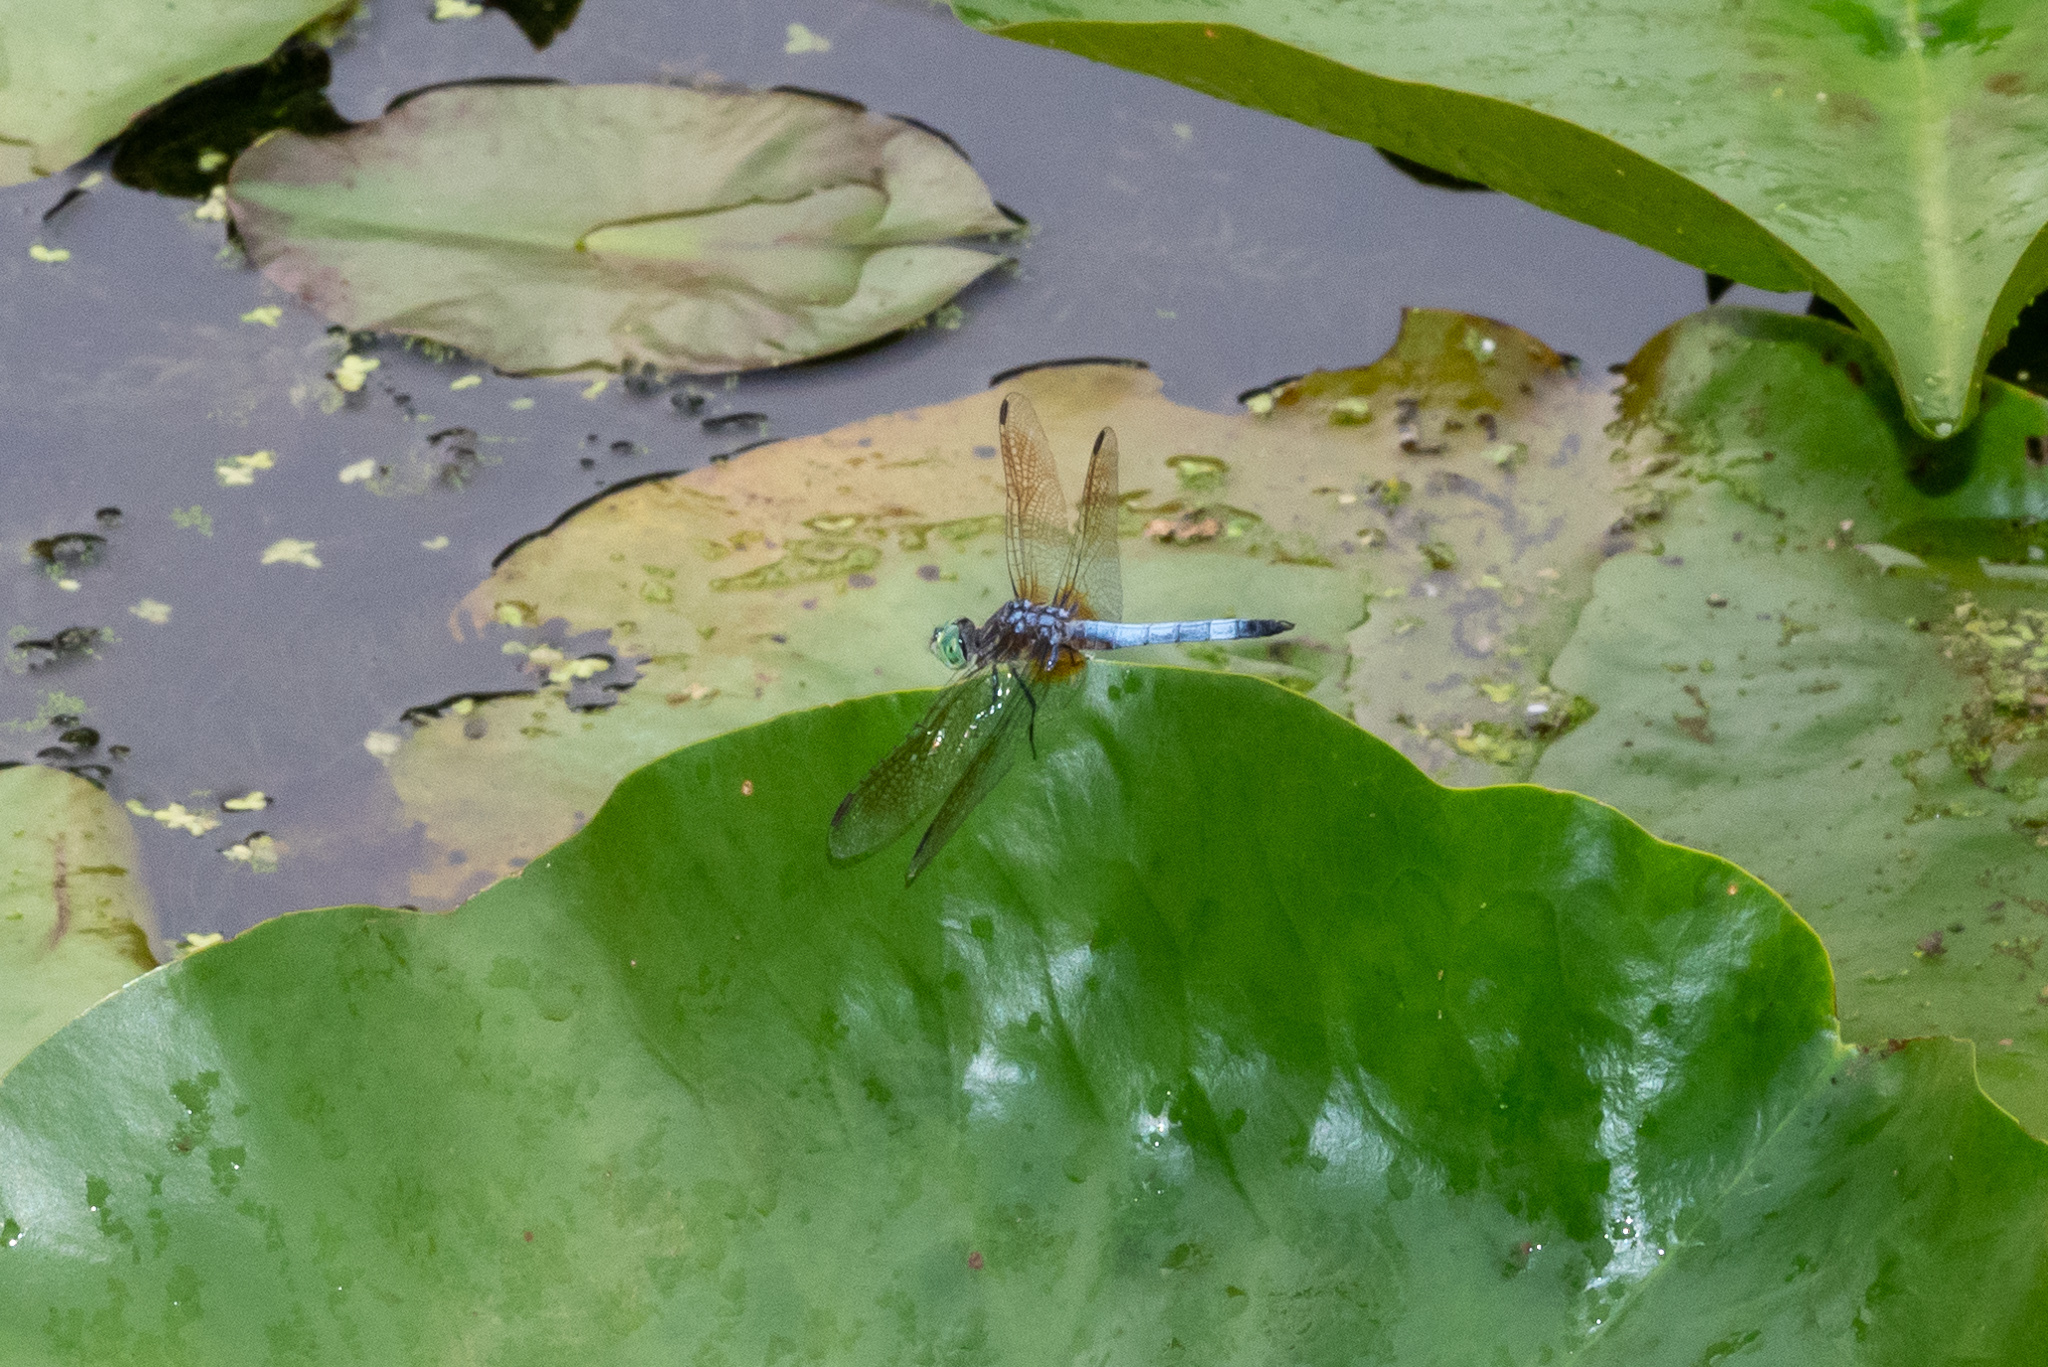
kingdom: Animalia
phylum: Arthropoda
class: Insecta
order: Odonata
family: Libellulidae
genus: Pachydiplax
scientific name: Pachydiplax longipennis
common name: Blue dasher
